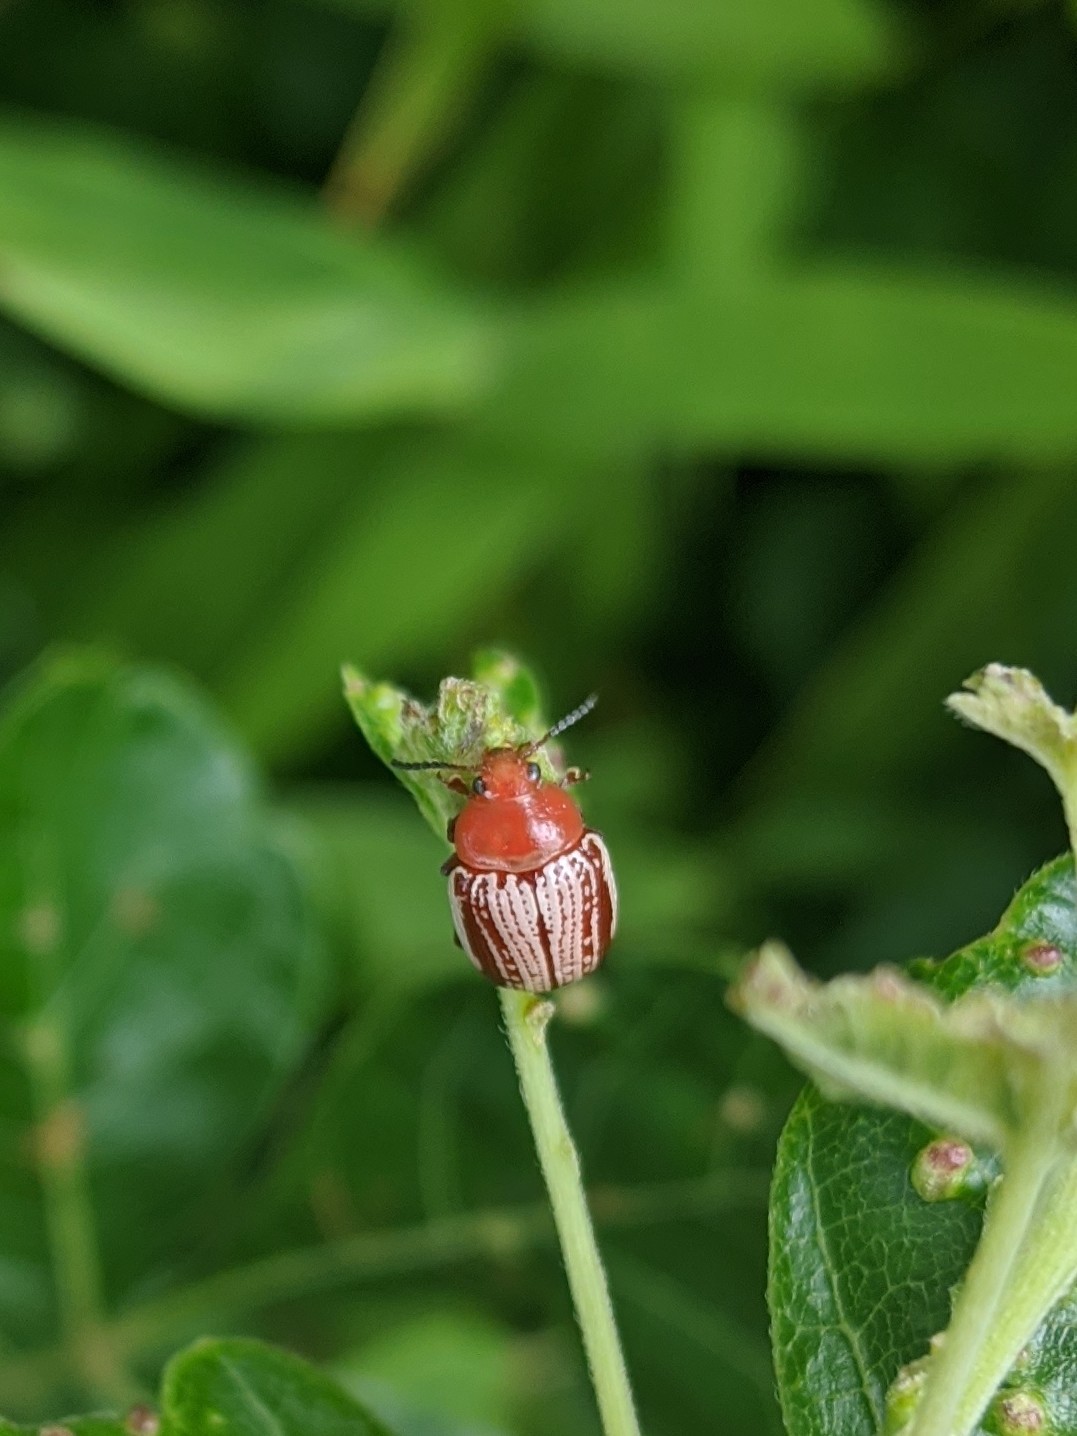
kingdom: Animalia
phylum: Arthropoda
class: Insecta
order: Coleoptera
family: Chrysomelidae
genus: Blepharida
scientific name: Blepharida rhois
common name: Sumac flea beetle
